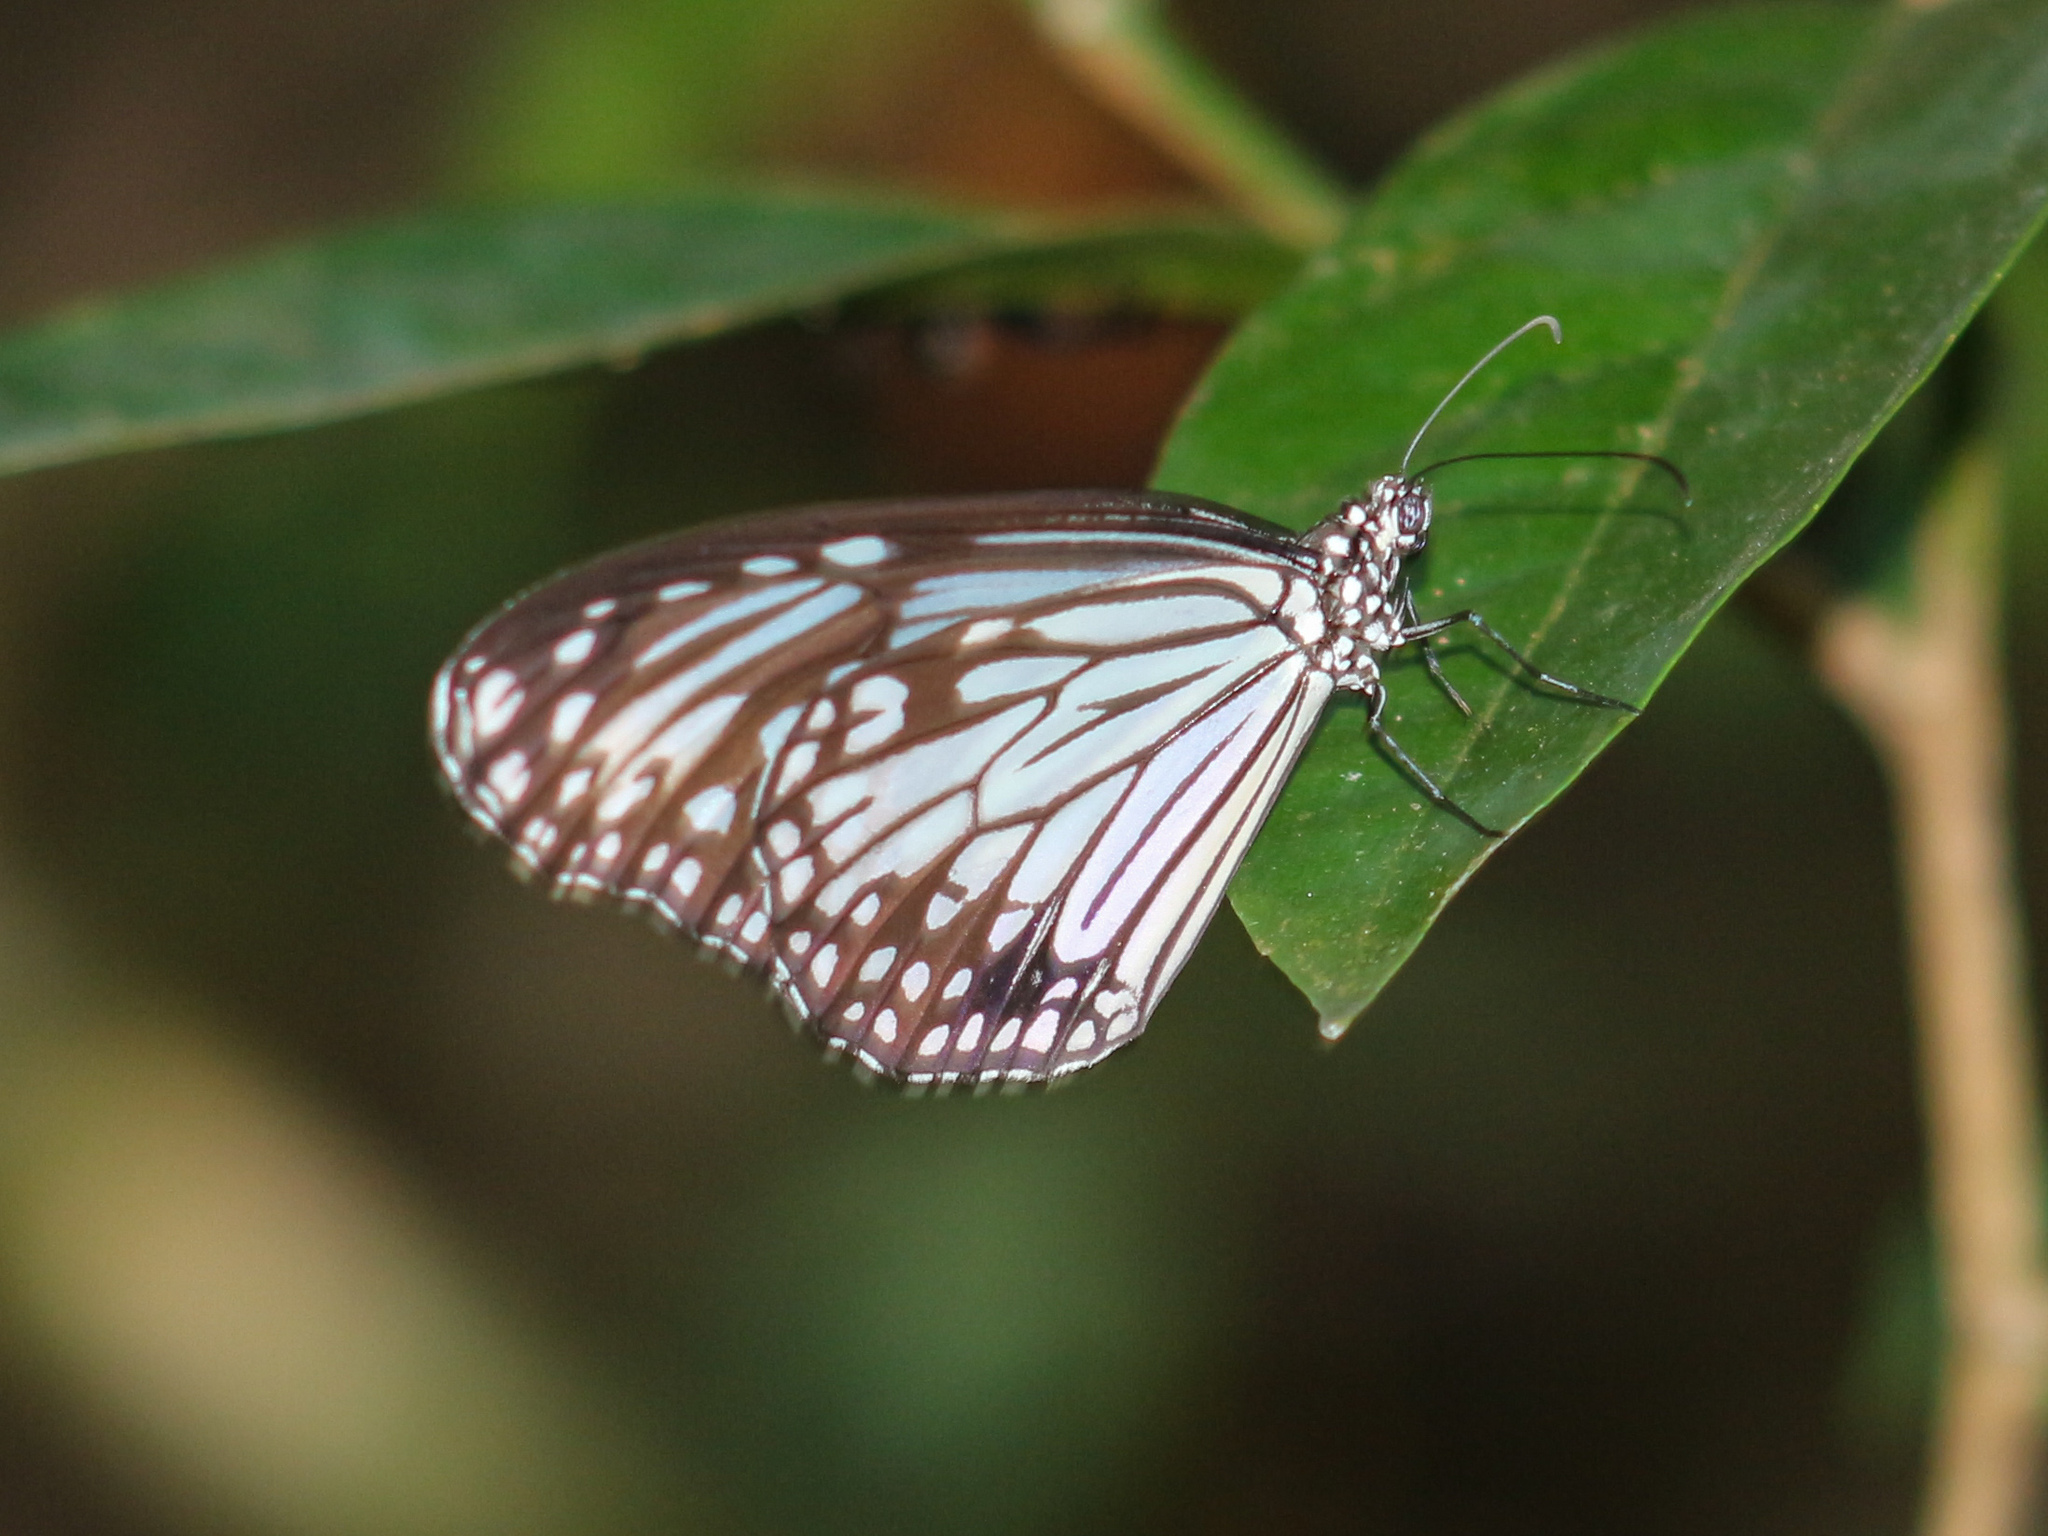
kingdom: Animalia
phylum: Arthropoda
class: Insecta
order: Lepidoptera
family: Nymphalidae
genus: Parantica
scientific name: Parantica aglea
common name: Glassy tiger
